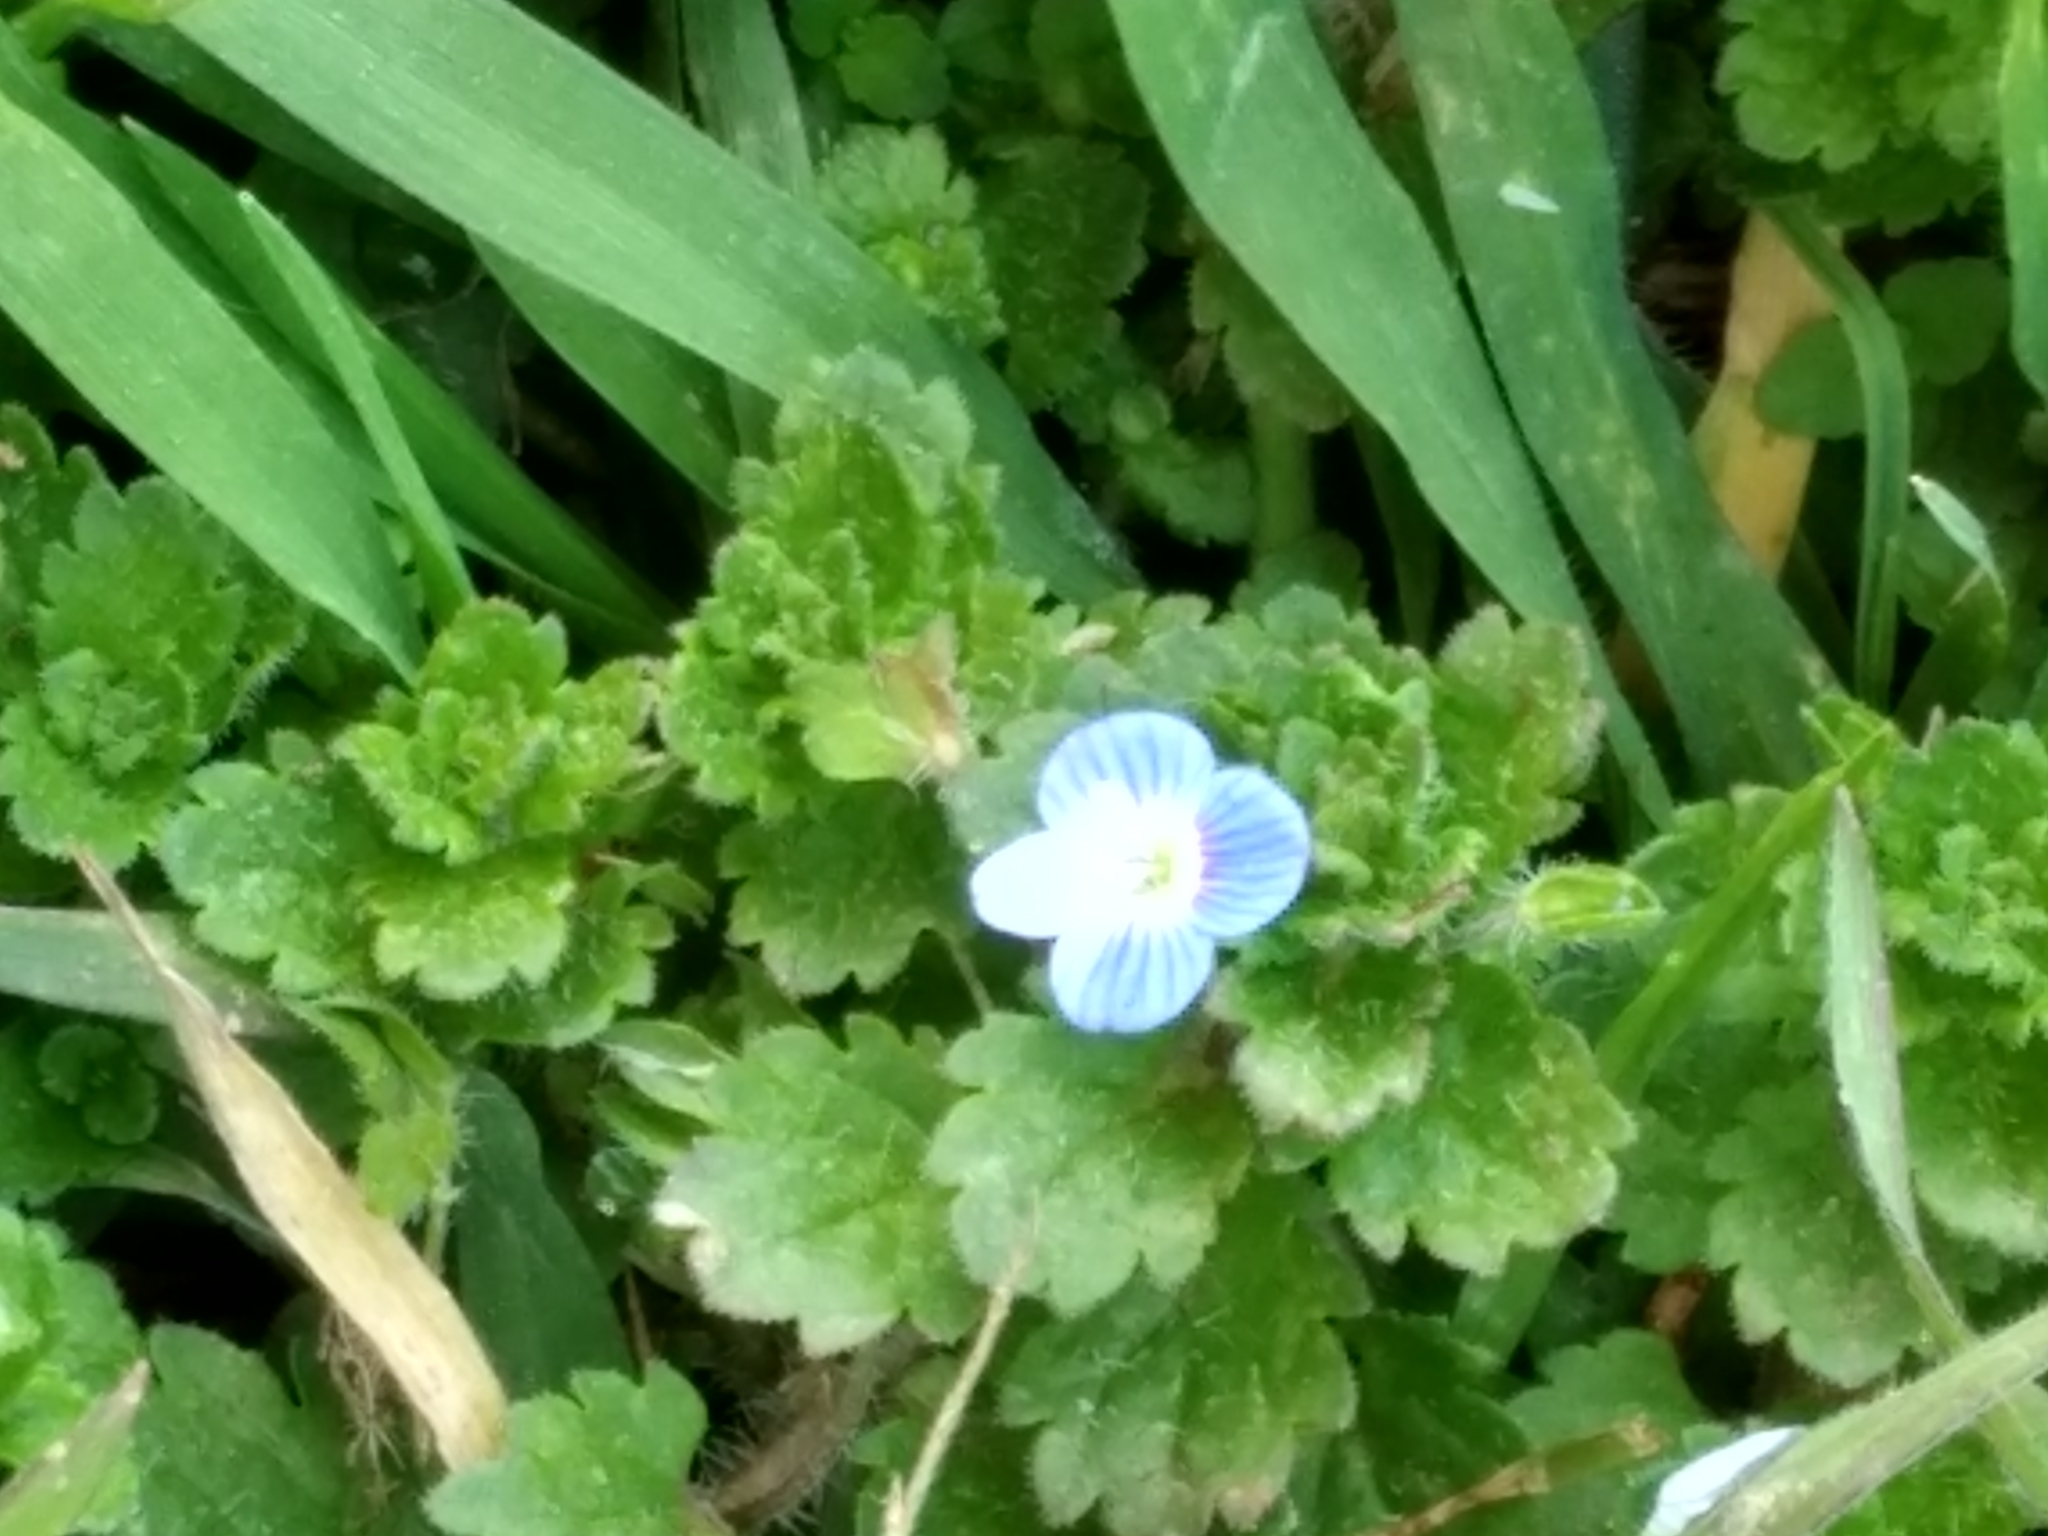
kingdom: Plantae
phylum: Tracheophyta
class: Magnoliopsida
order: Lamiales
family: Plantaginaceae
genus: Veronica
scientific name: Veronica persica
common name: Common field-speedwell
